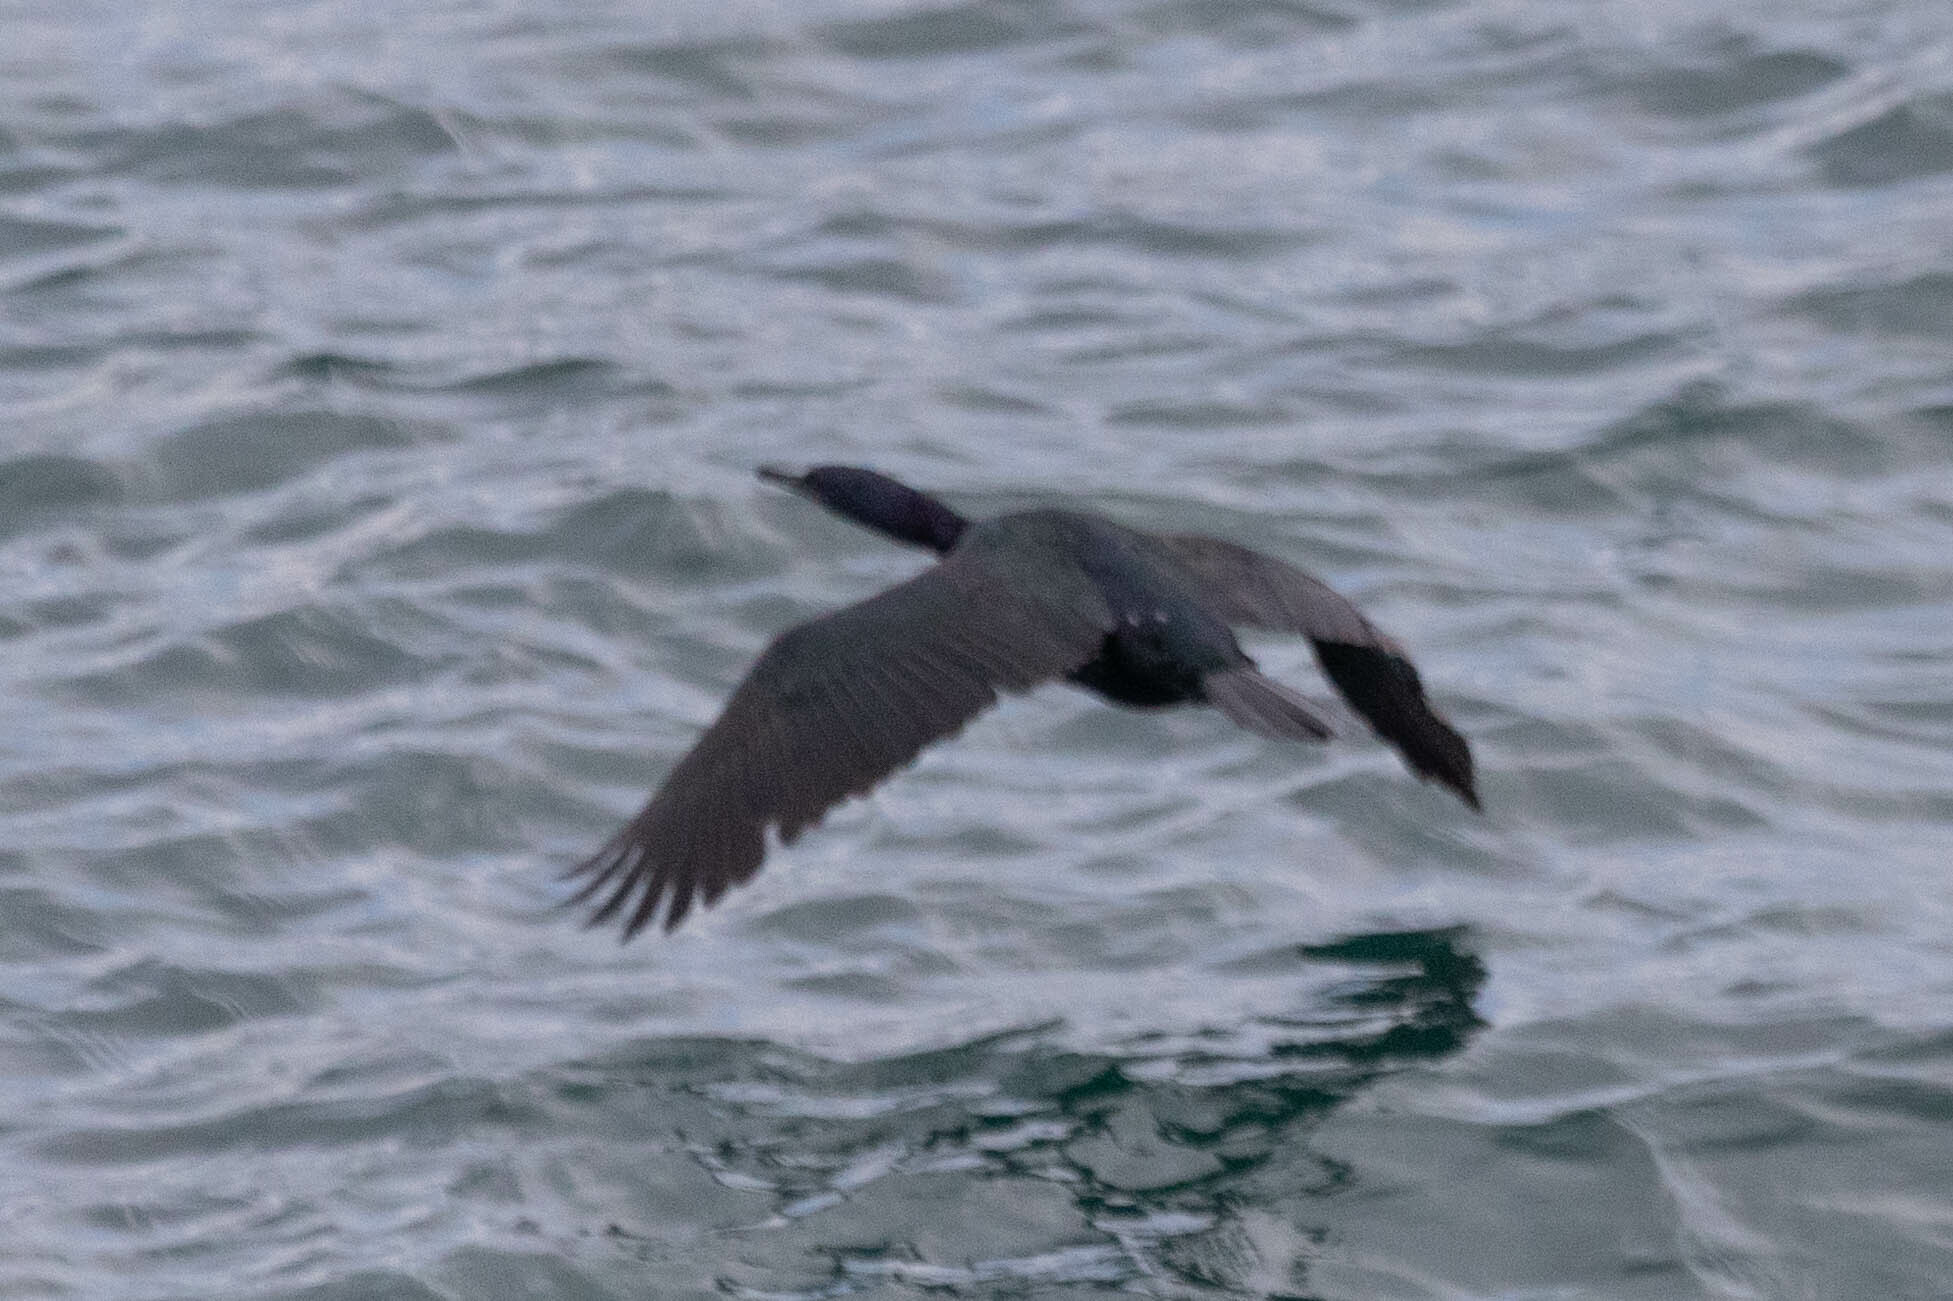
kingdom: Animalia
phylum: Chordata
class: Aves
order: Suliformes
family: Phalacrocoracidae
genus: Phalacrocorax
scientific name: Phalacrocorax pelagicus
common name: Pelagic cormorant
